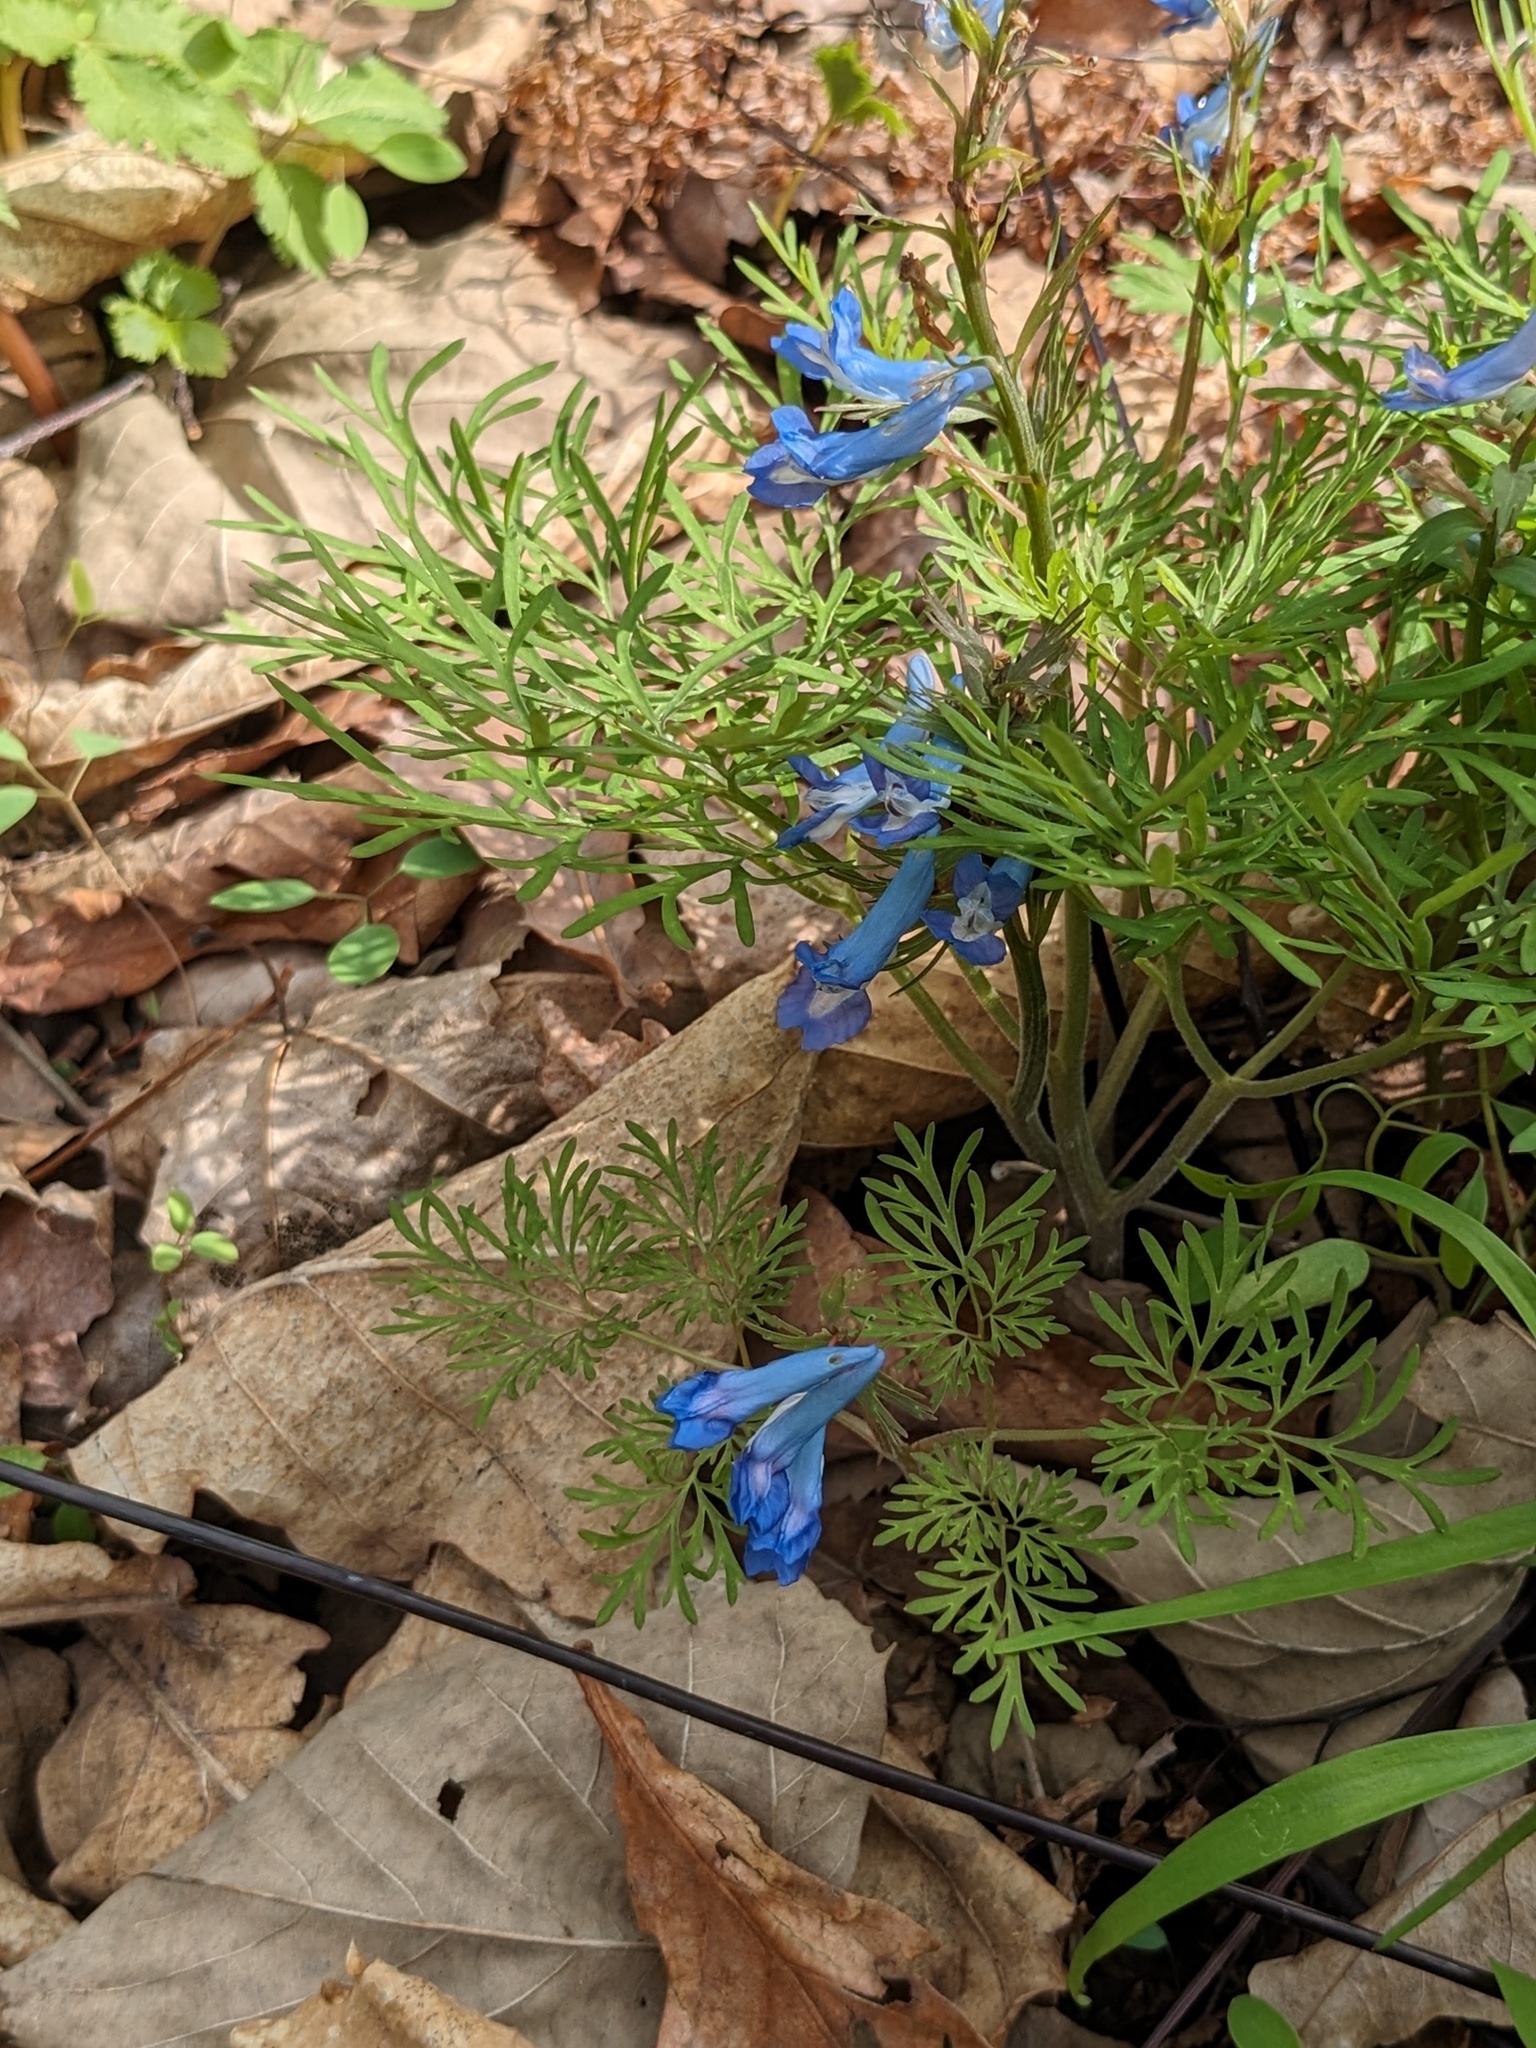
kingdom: Plantae
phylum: Tracheophyta
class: Magnoliopsida
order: Ranunculales
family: Papaveraceae
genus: Corydalis
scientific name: Corydalis fumariifolia
